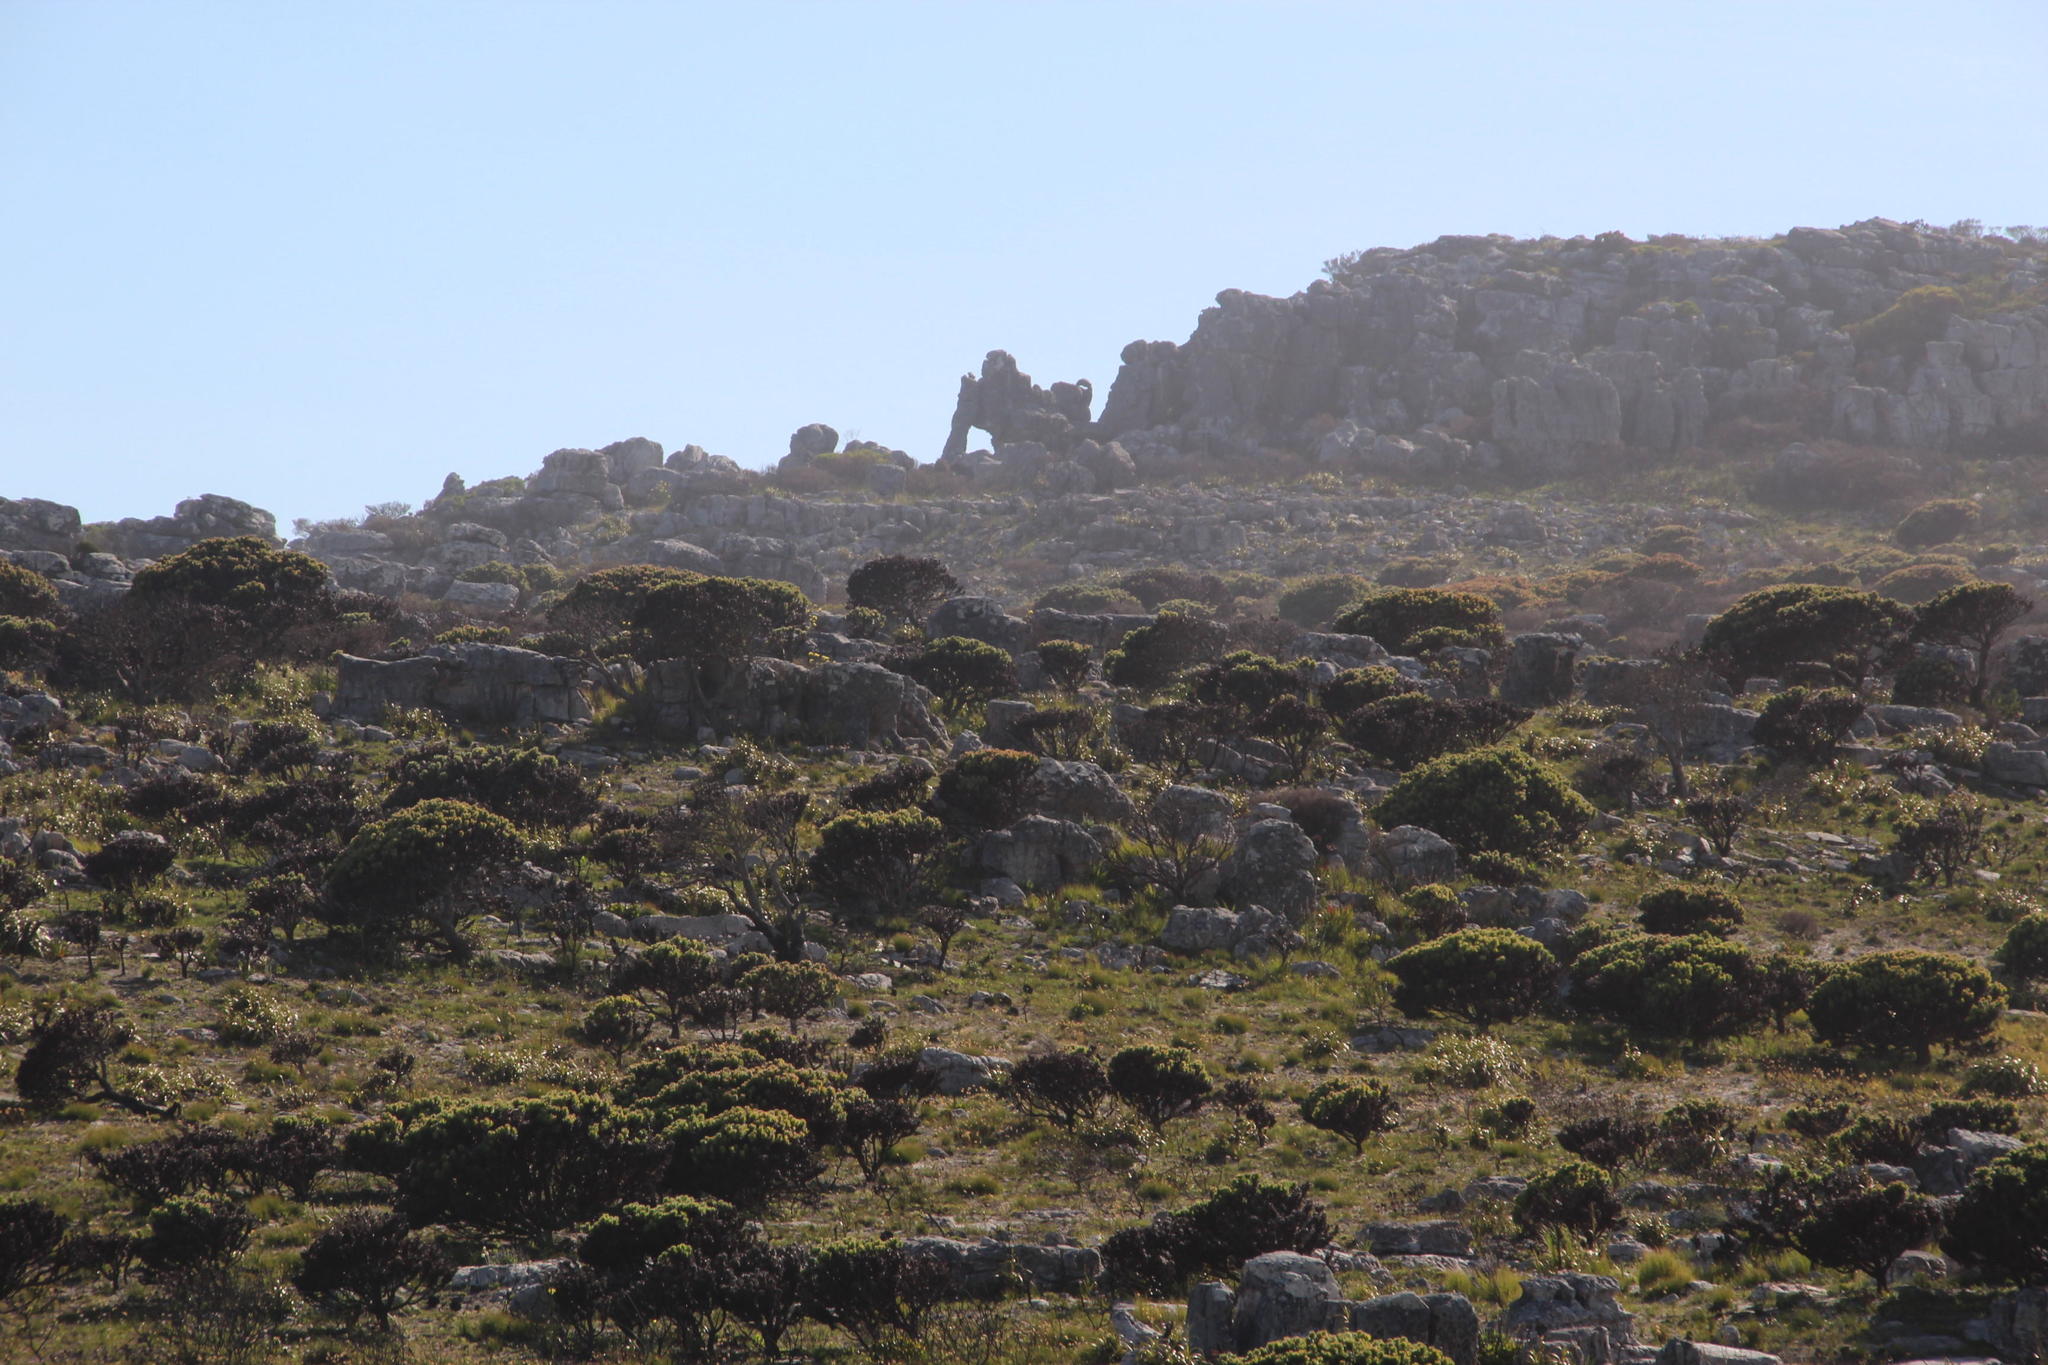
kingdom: Plantae
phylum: Tracheophyta
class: Magnoliopsida
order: Proteales
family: Proteaceae
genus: Mimetes
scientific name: Mimetes fimbriifolius
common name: Fringed bottlebrush
